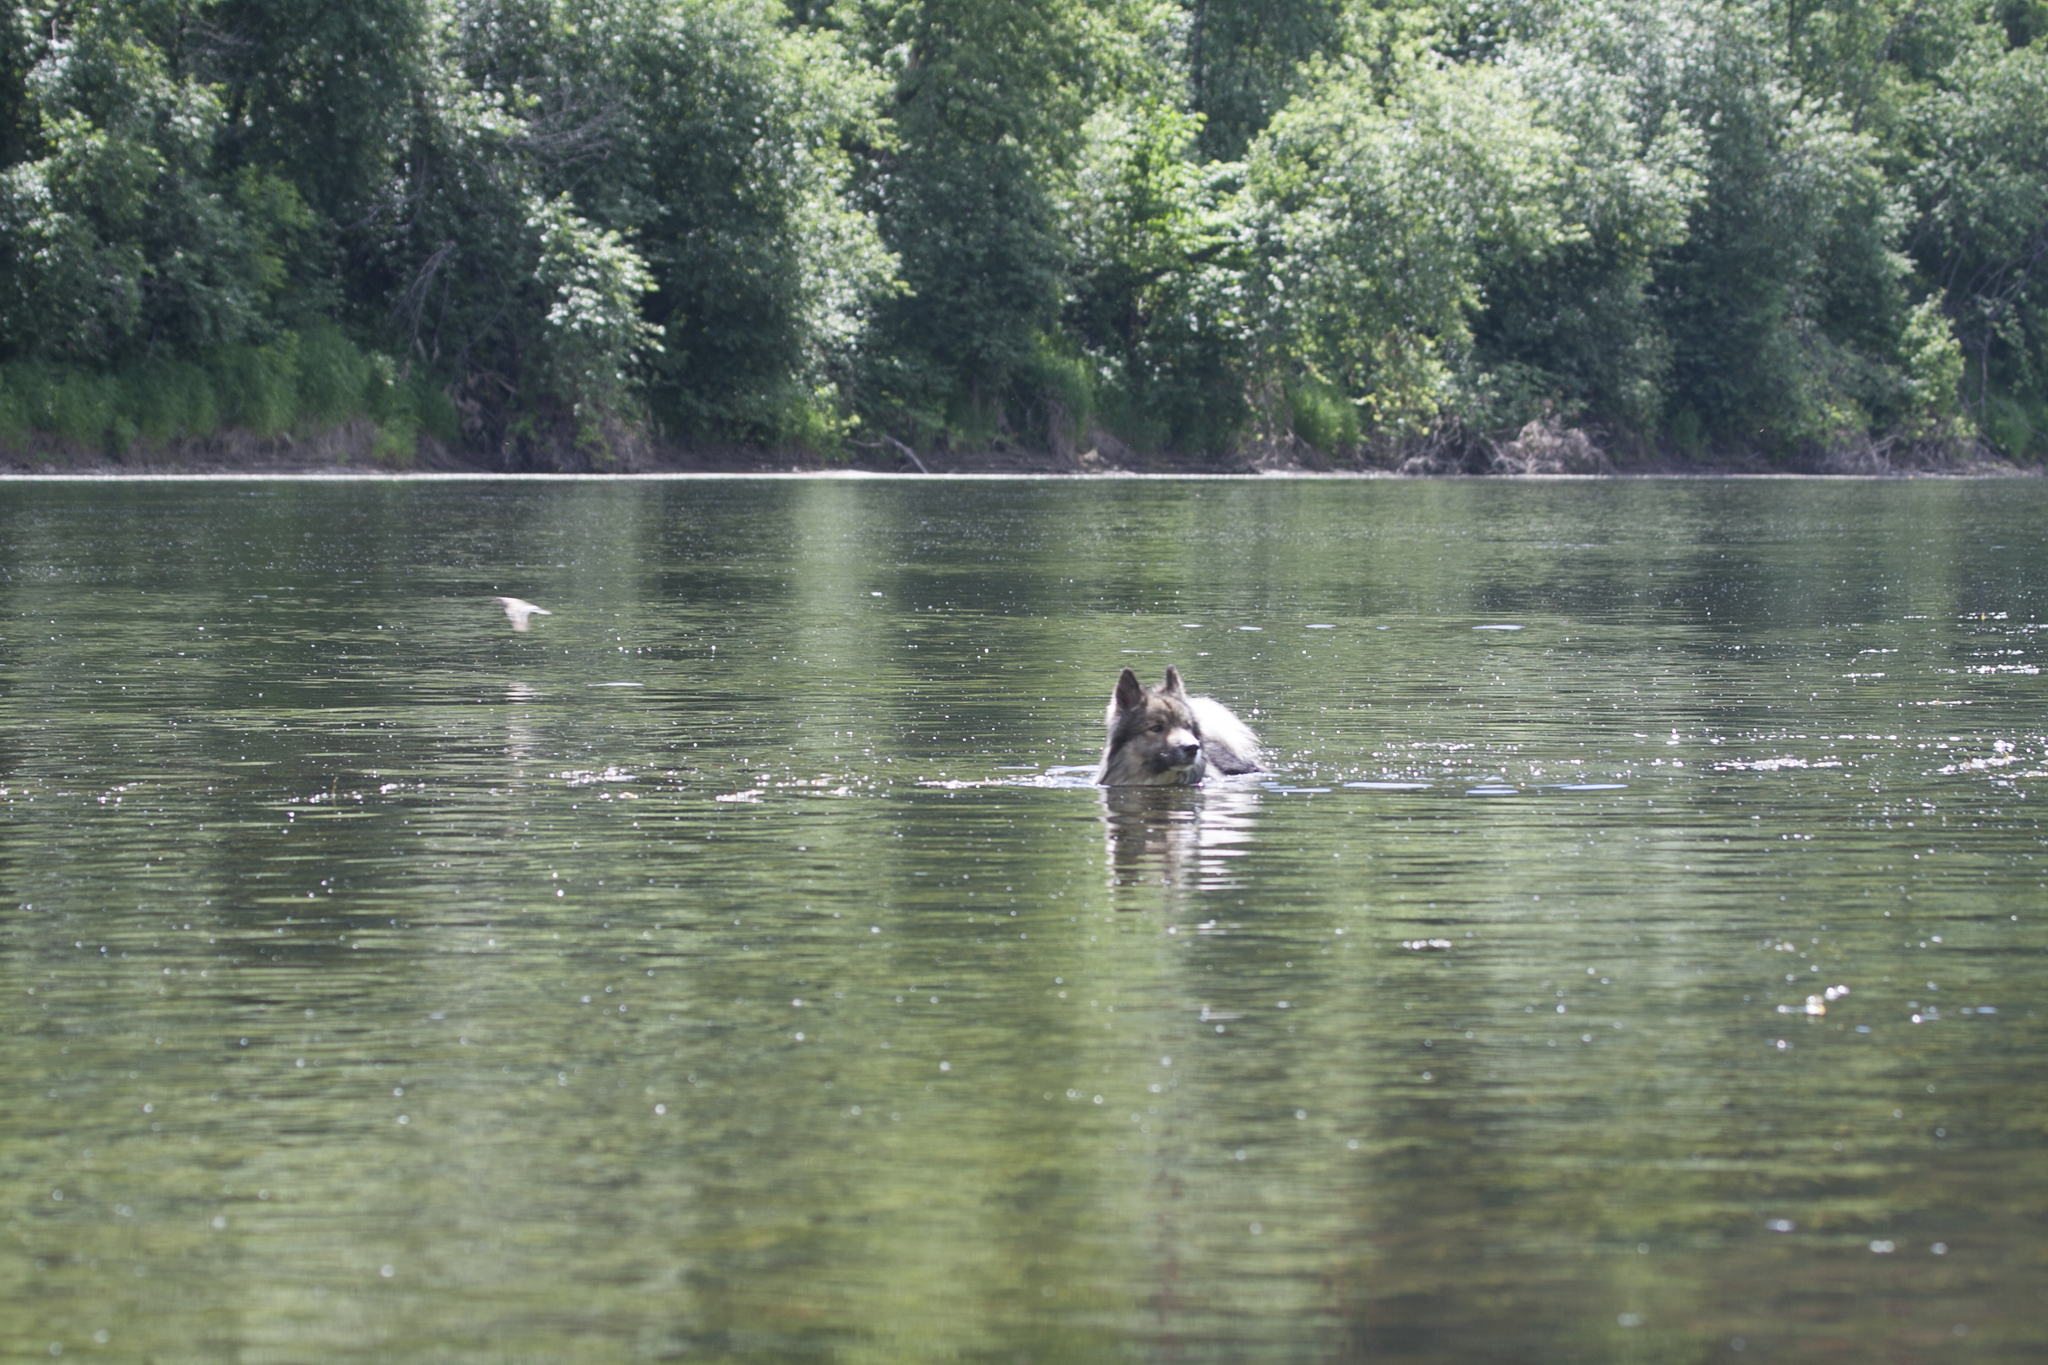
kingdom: Animalia
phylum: Chordata
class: Aves
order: Charadriiformes
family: Scolopacidae
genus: Actitis
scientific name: Actitis hypoleucos
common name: Common sandpiper
